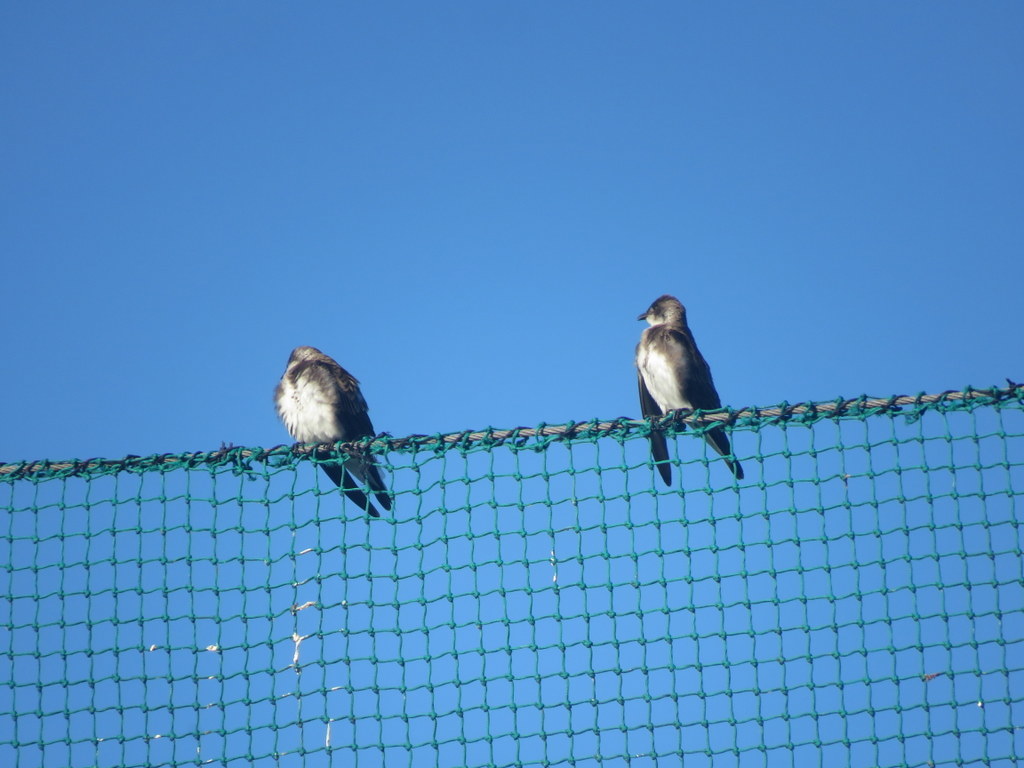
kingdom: Animalia
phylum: Chordata
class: Aves
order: Passeriformes
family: Hirundinidae
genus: Progne
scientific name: Progne tapera
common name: Brown-chested martin
